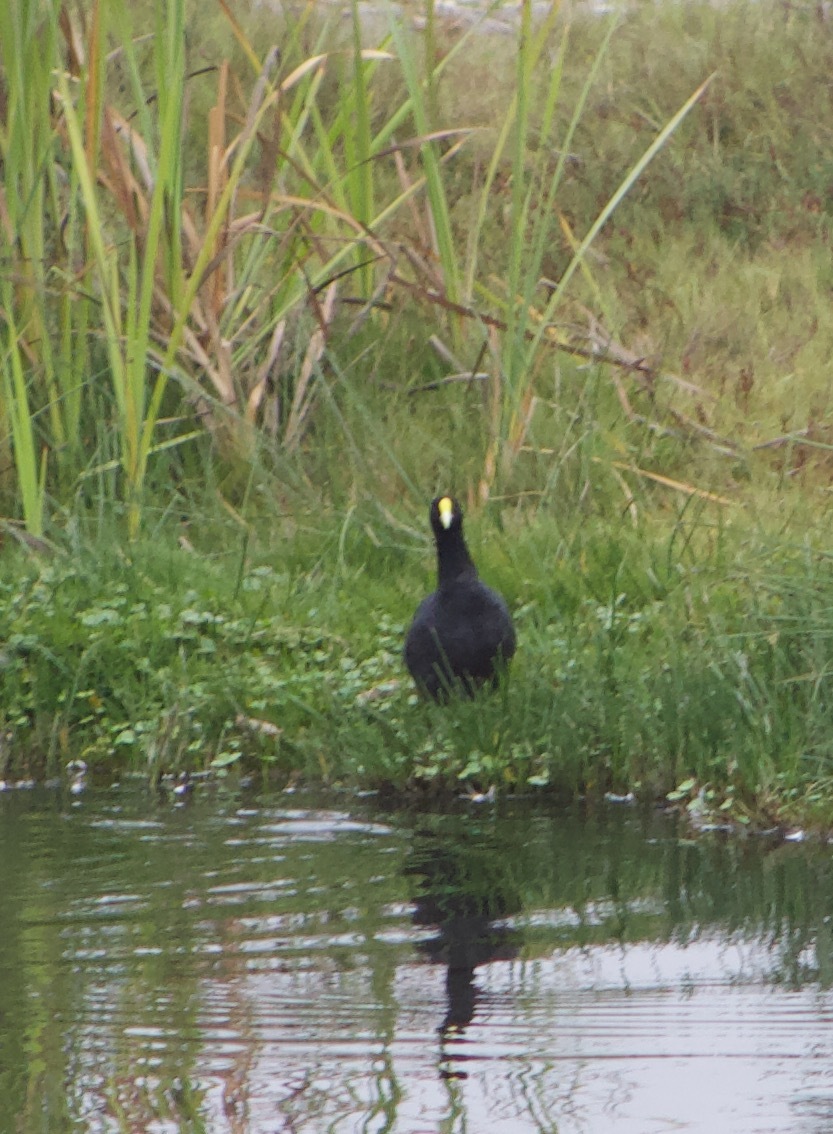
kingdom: Animalia
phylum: Chordata
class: Aves
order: Gruiformes
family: Rallidae
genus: Fulica
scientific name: Fulica leucoptera
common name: White-winged coot
